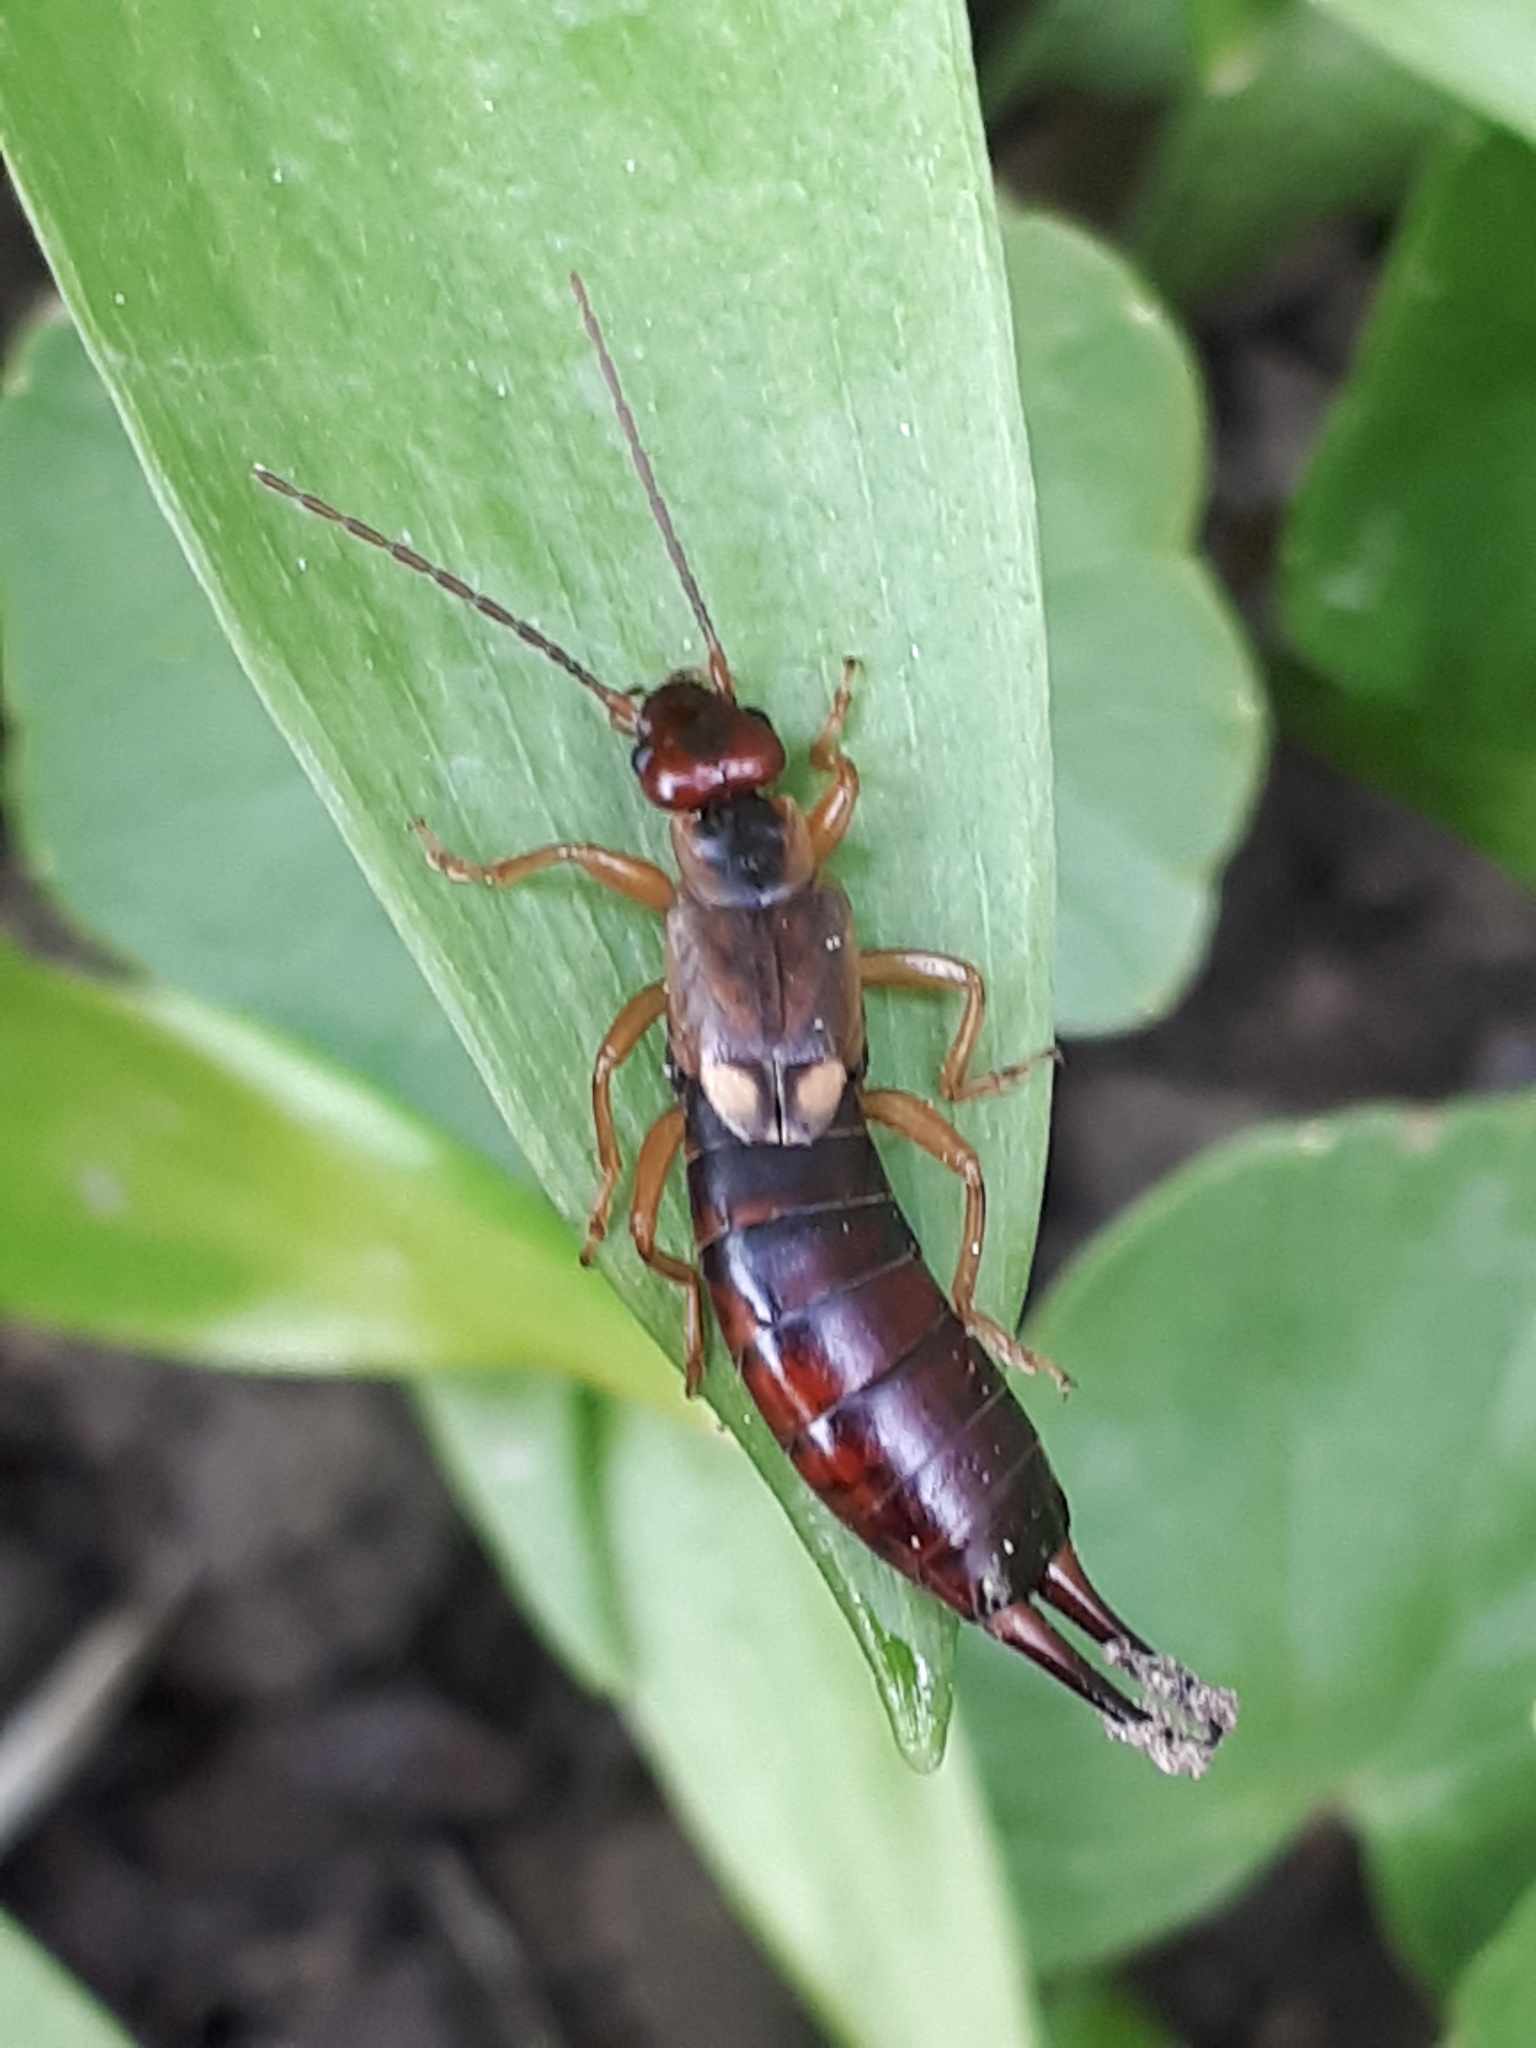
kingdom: Animalia
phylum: Arthropoda
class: Insecta
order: Dermaptera
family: Forficulidae
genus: Forficula
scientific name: Forficula
